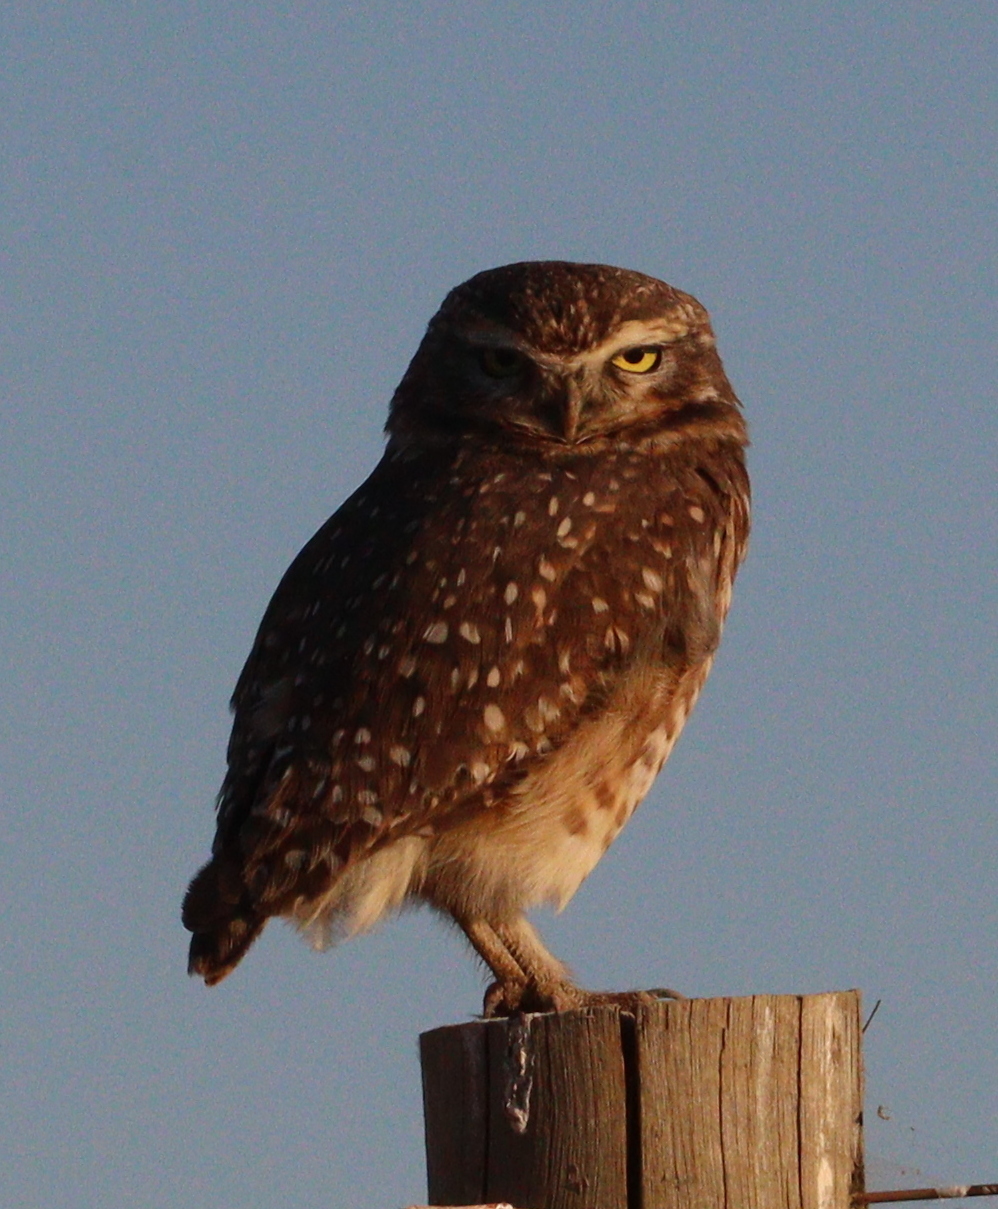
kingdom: Animalia
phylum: Chordata
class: Aves
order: Strigiformes
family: Strigidae
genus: Athene
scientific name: Athene cunicularia
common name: Burrowing owl
